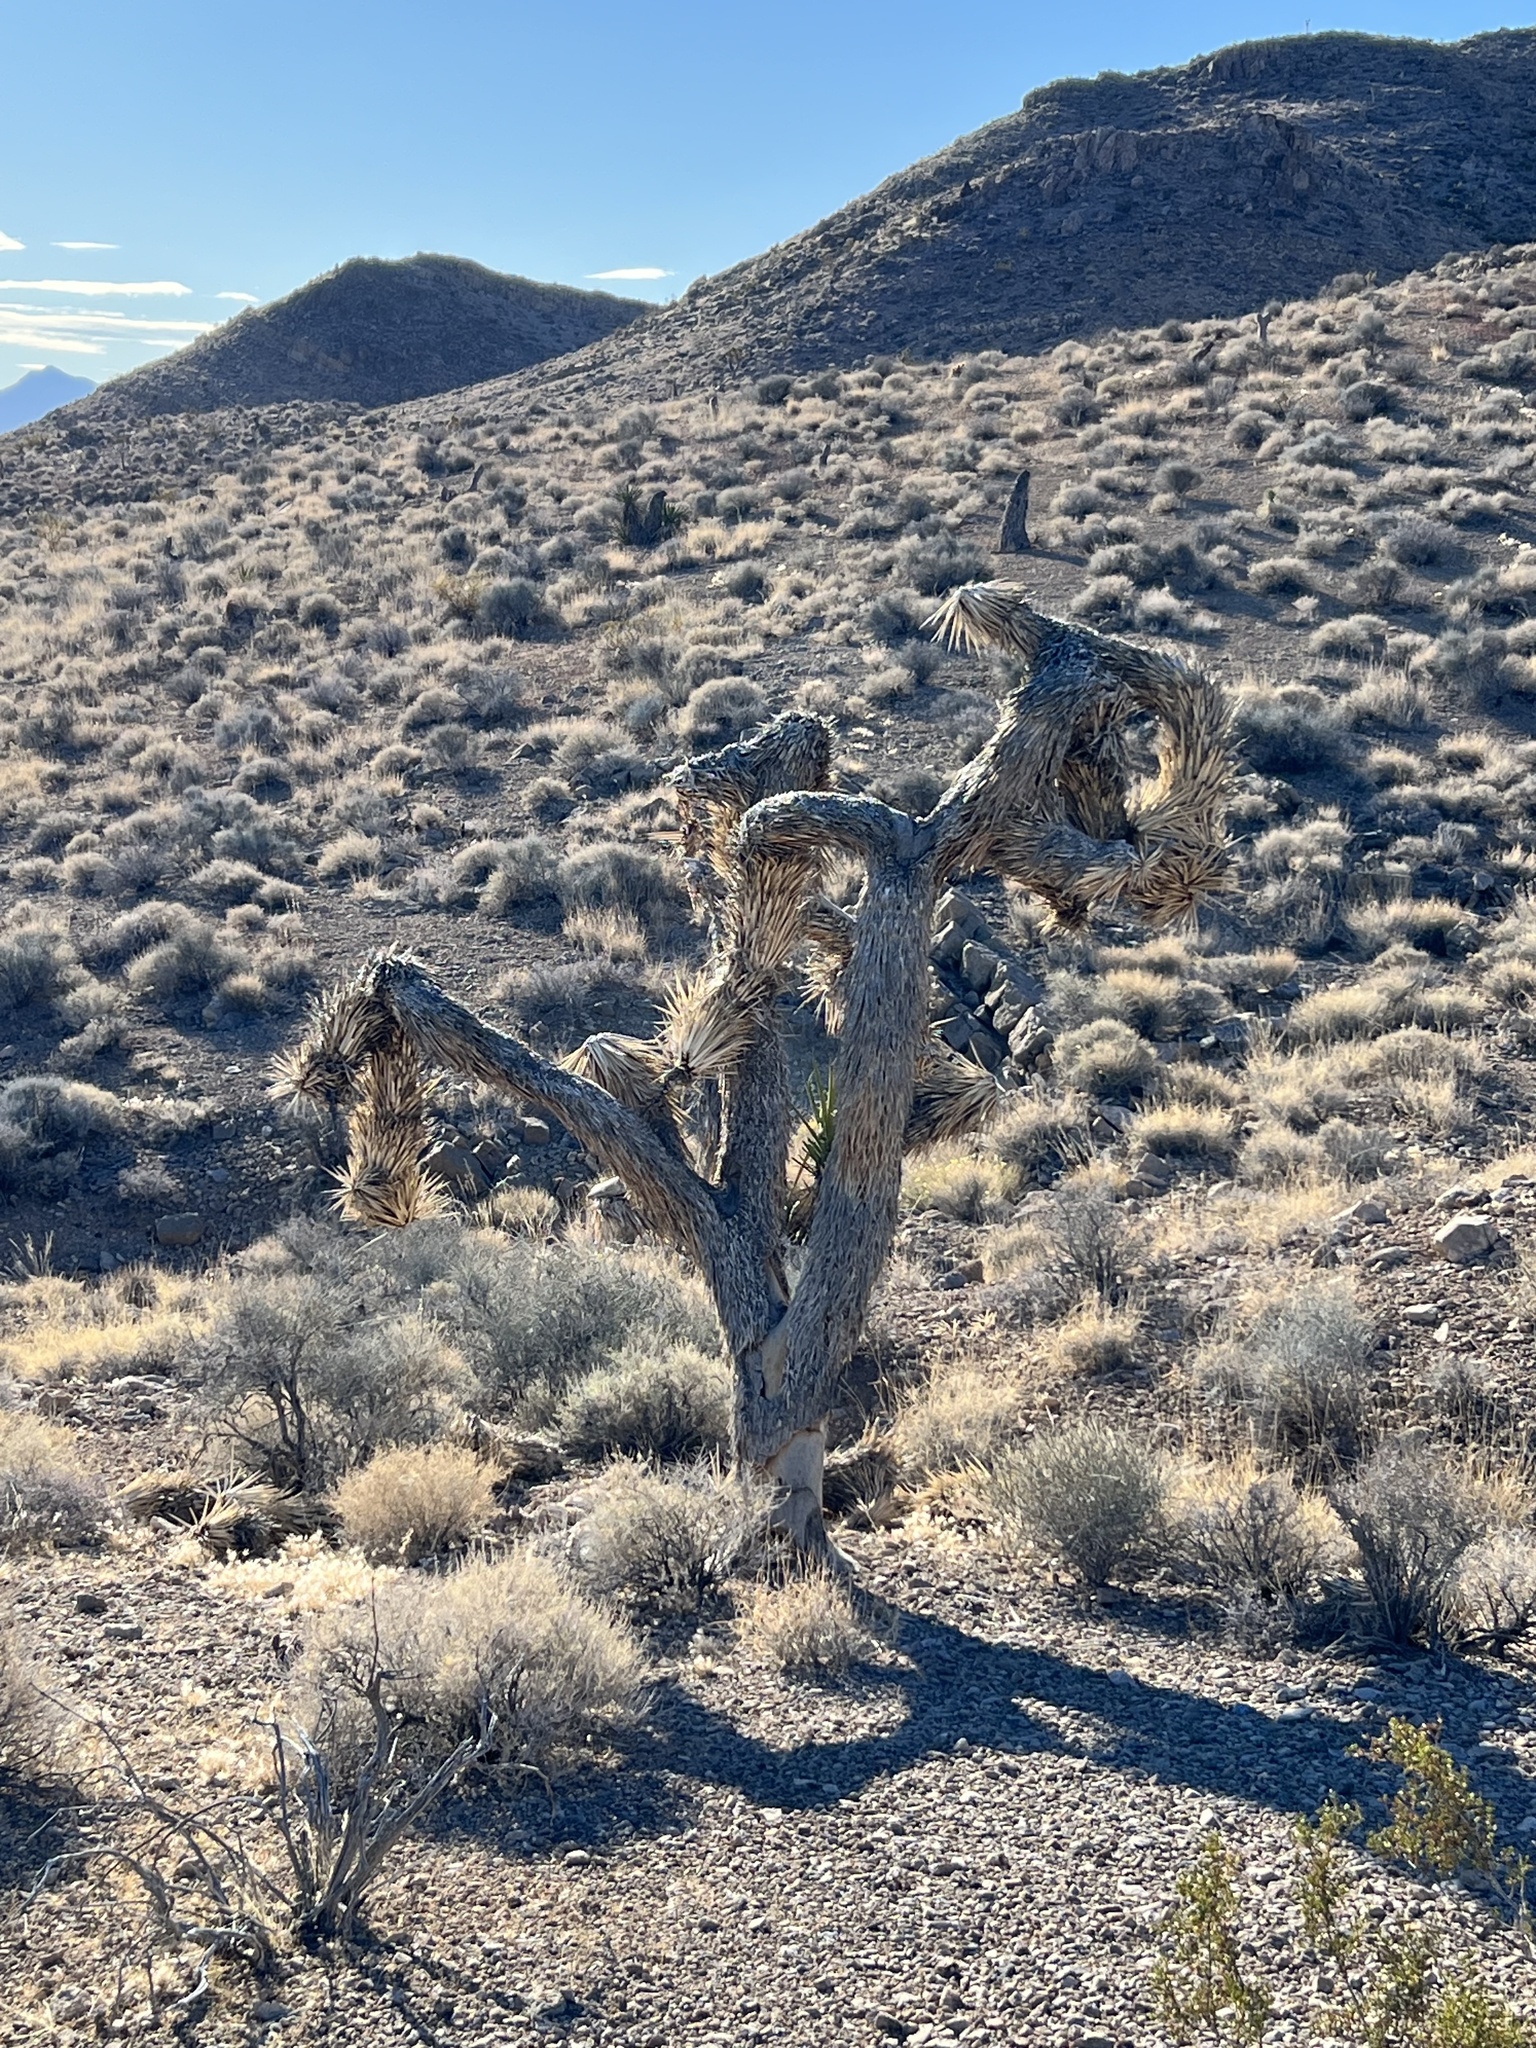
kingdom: Plantae
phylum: Tracheophyta
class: Liliopsida
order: Asparagales
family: Asparagaceae
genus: Yucca
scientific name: Yucca brevifolia
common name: Joshua tree
